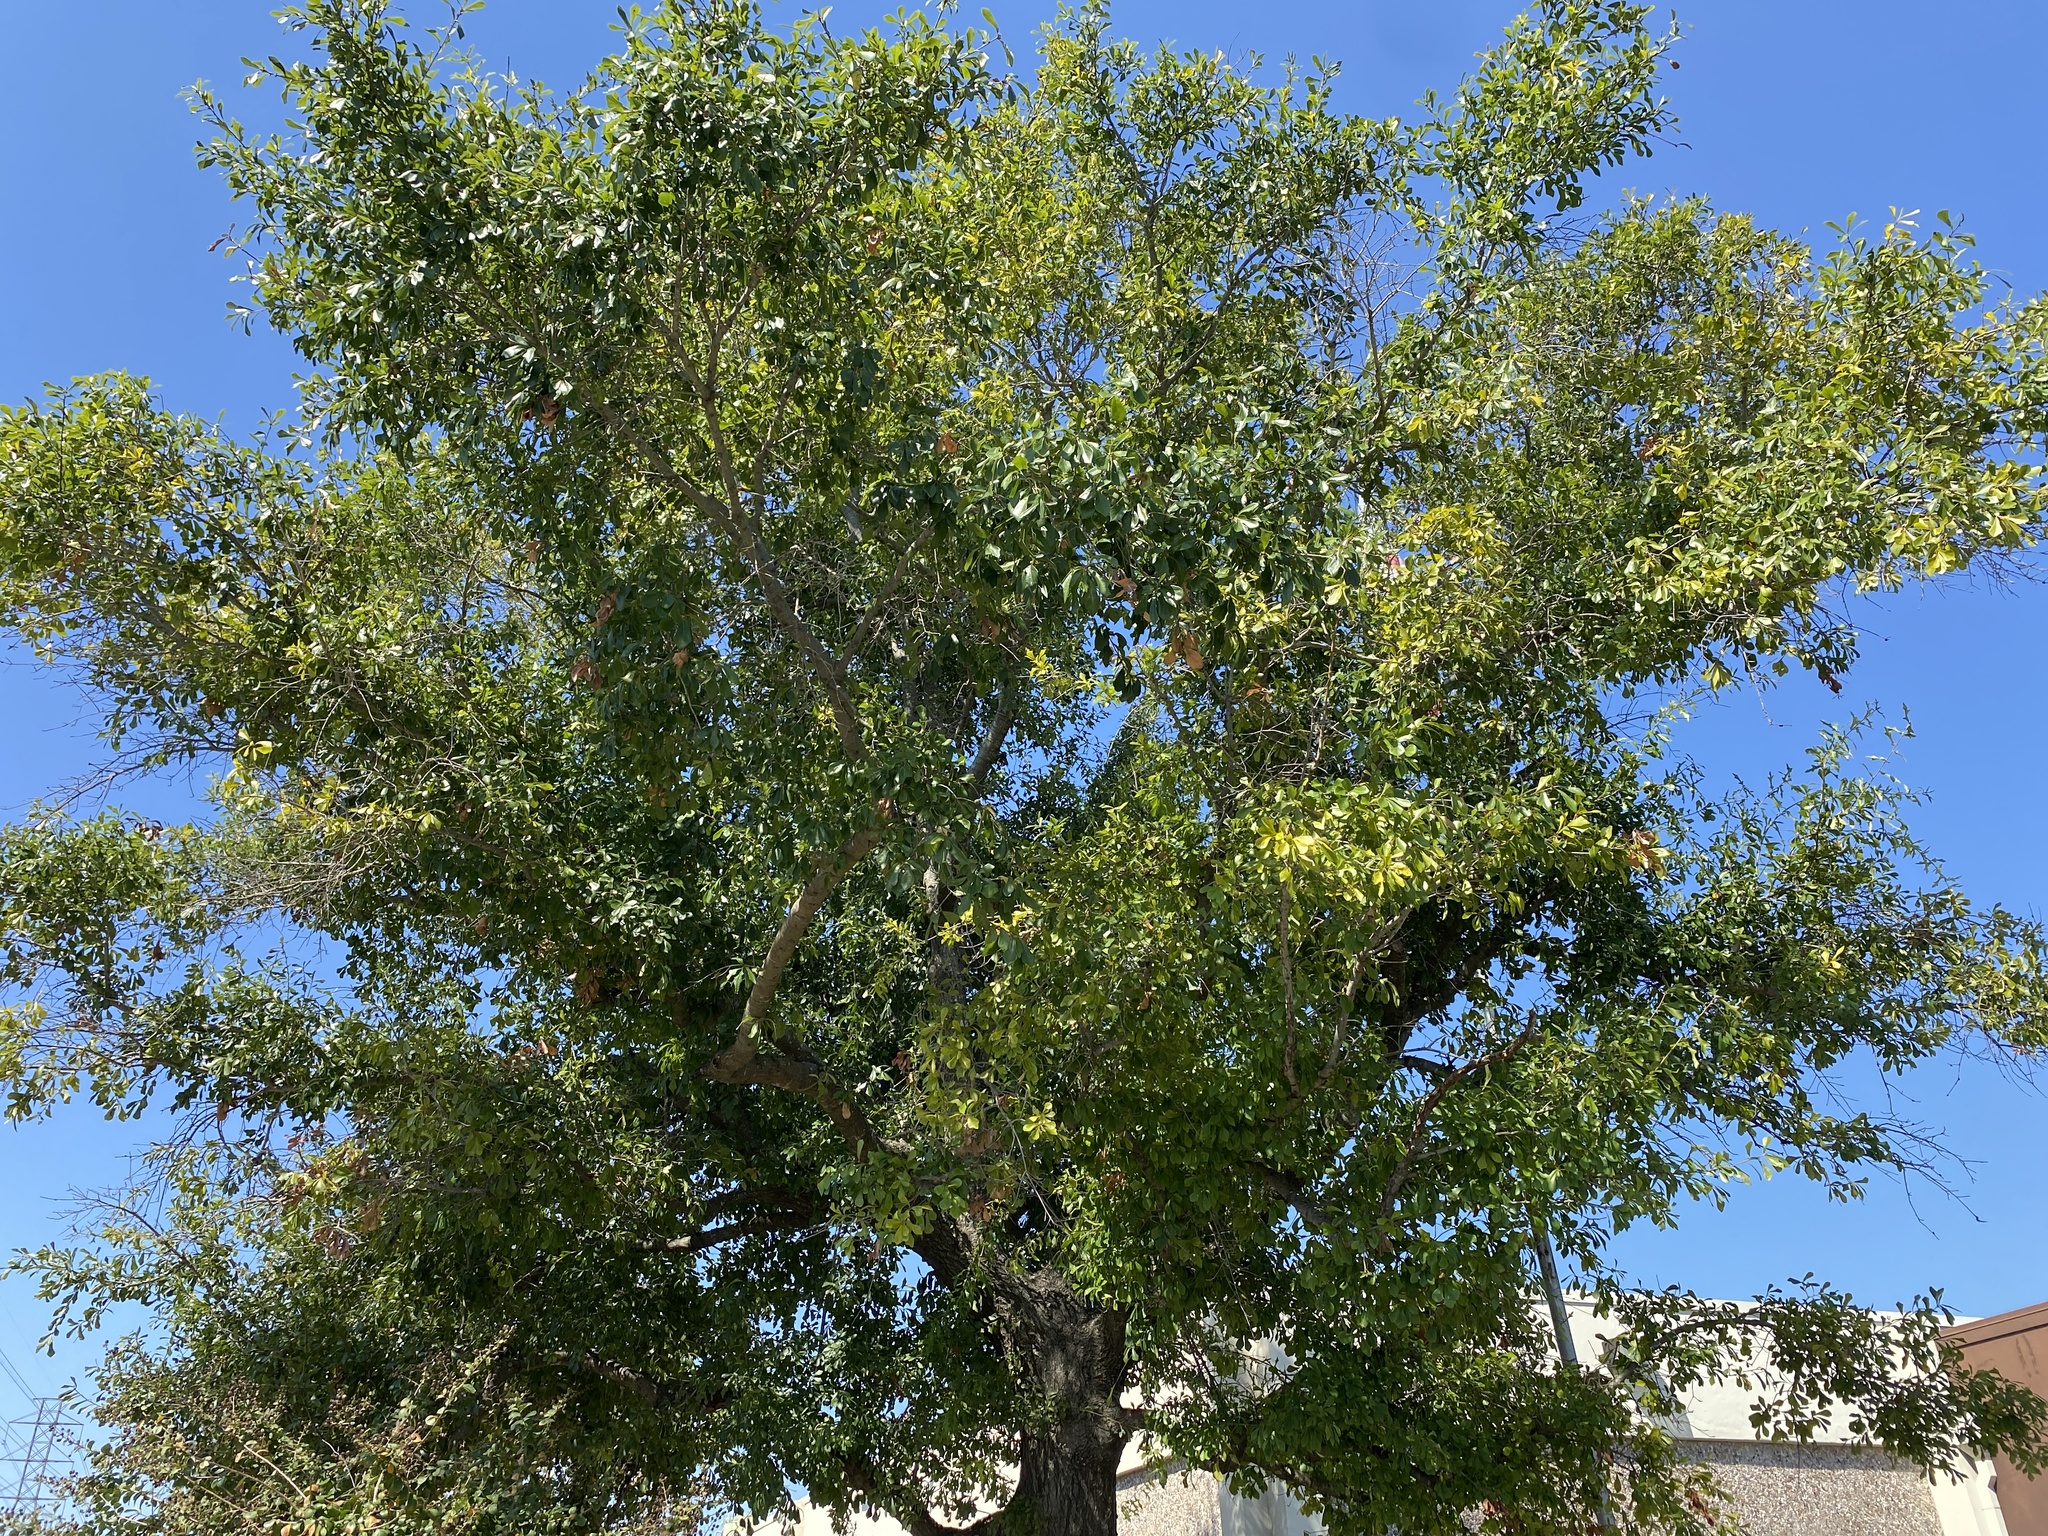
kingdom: Plantae
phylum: Tracheophyta
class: Magnoliopsida
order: Fagales
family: Fagaceae
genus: Quercus
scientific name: Quercus nigra
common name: Water oak
